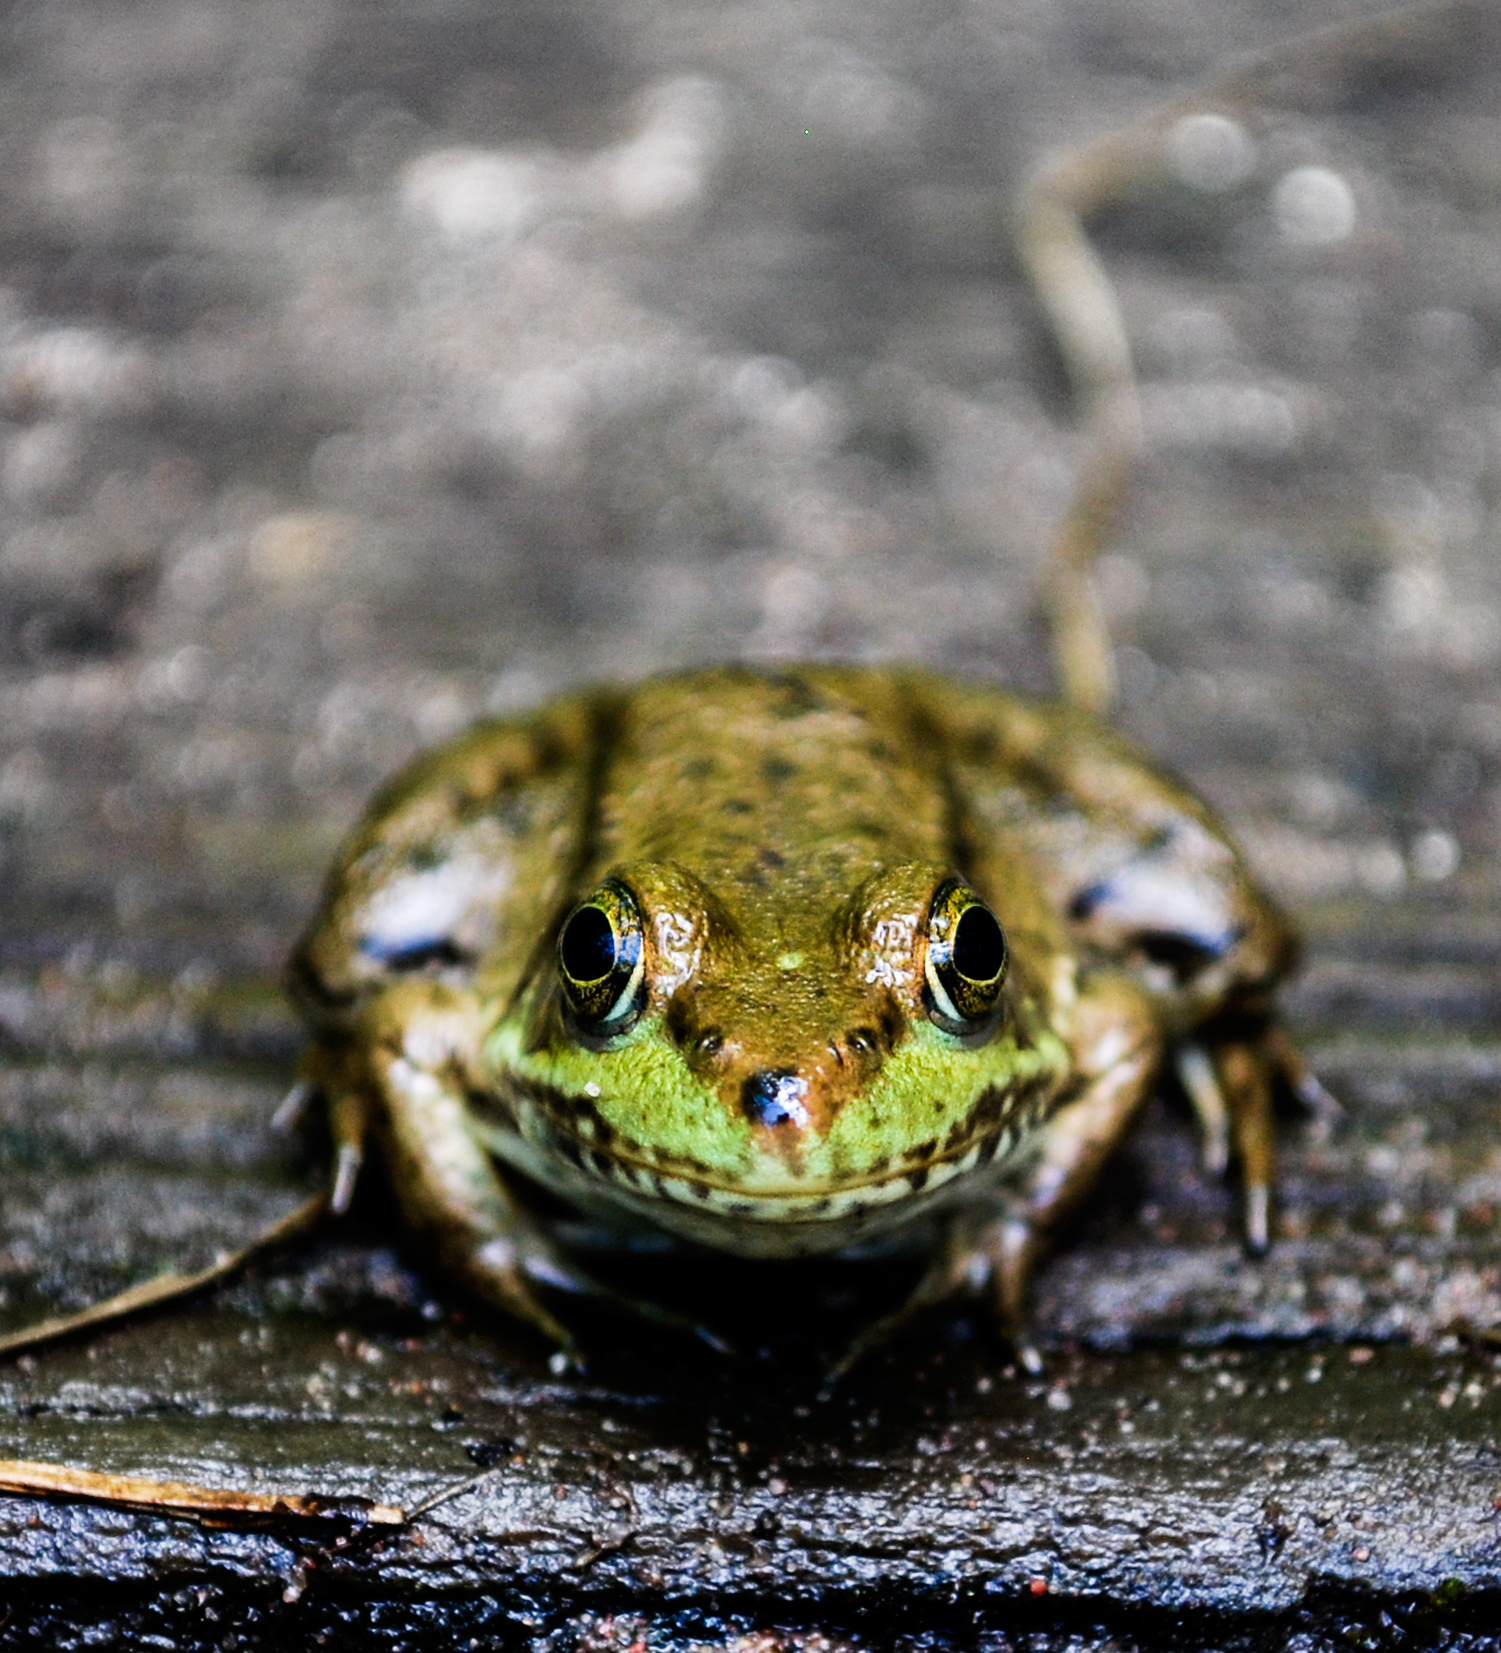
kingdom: Animalia
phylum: Chordata
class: Amphibia
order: Anura
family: Ranidae
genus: Lithobates
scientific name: Lithobates clamitans
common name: Green frog
